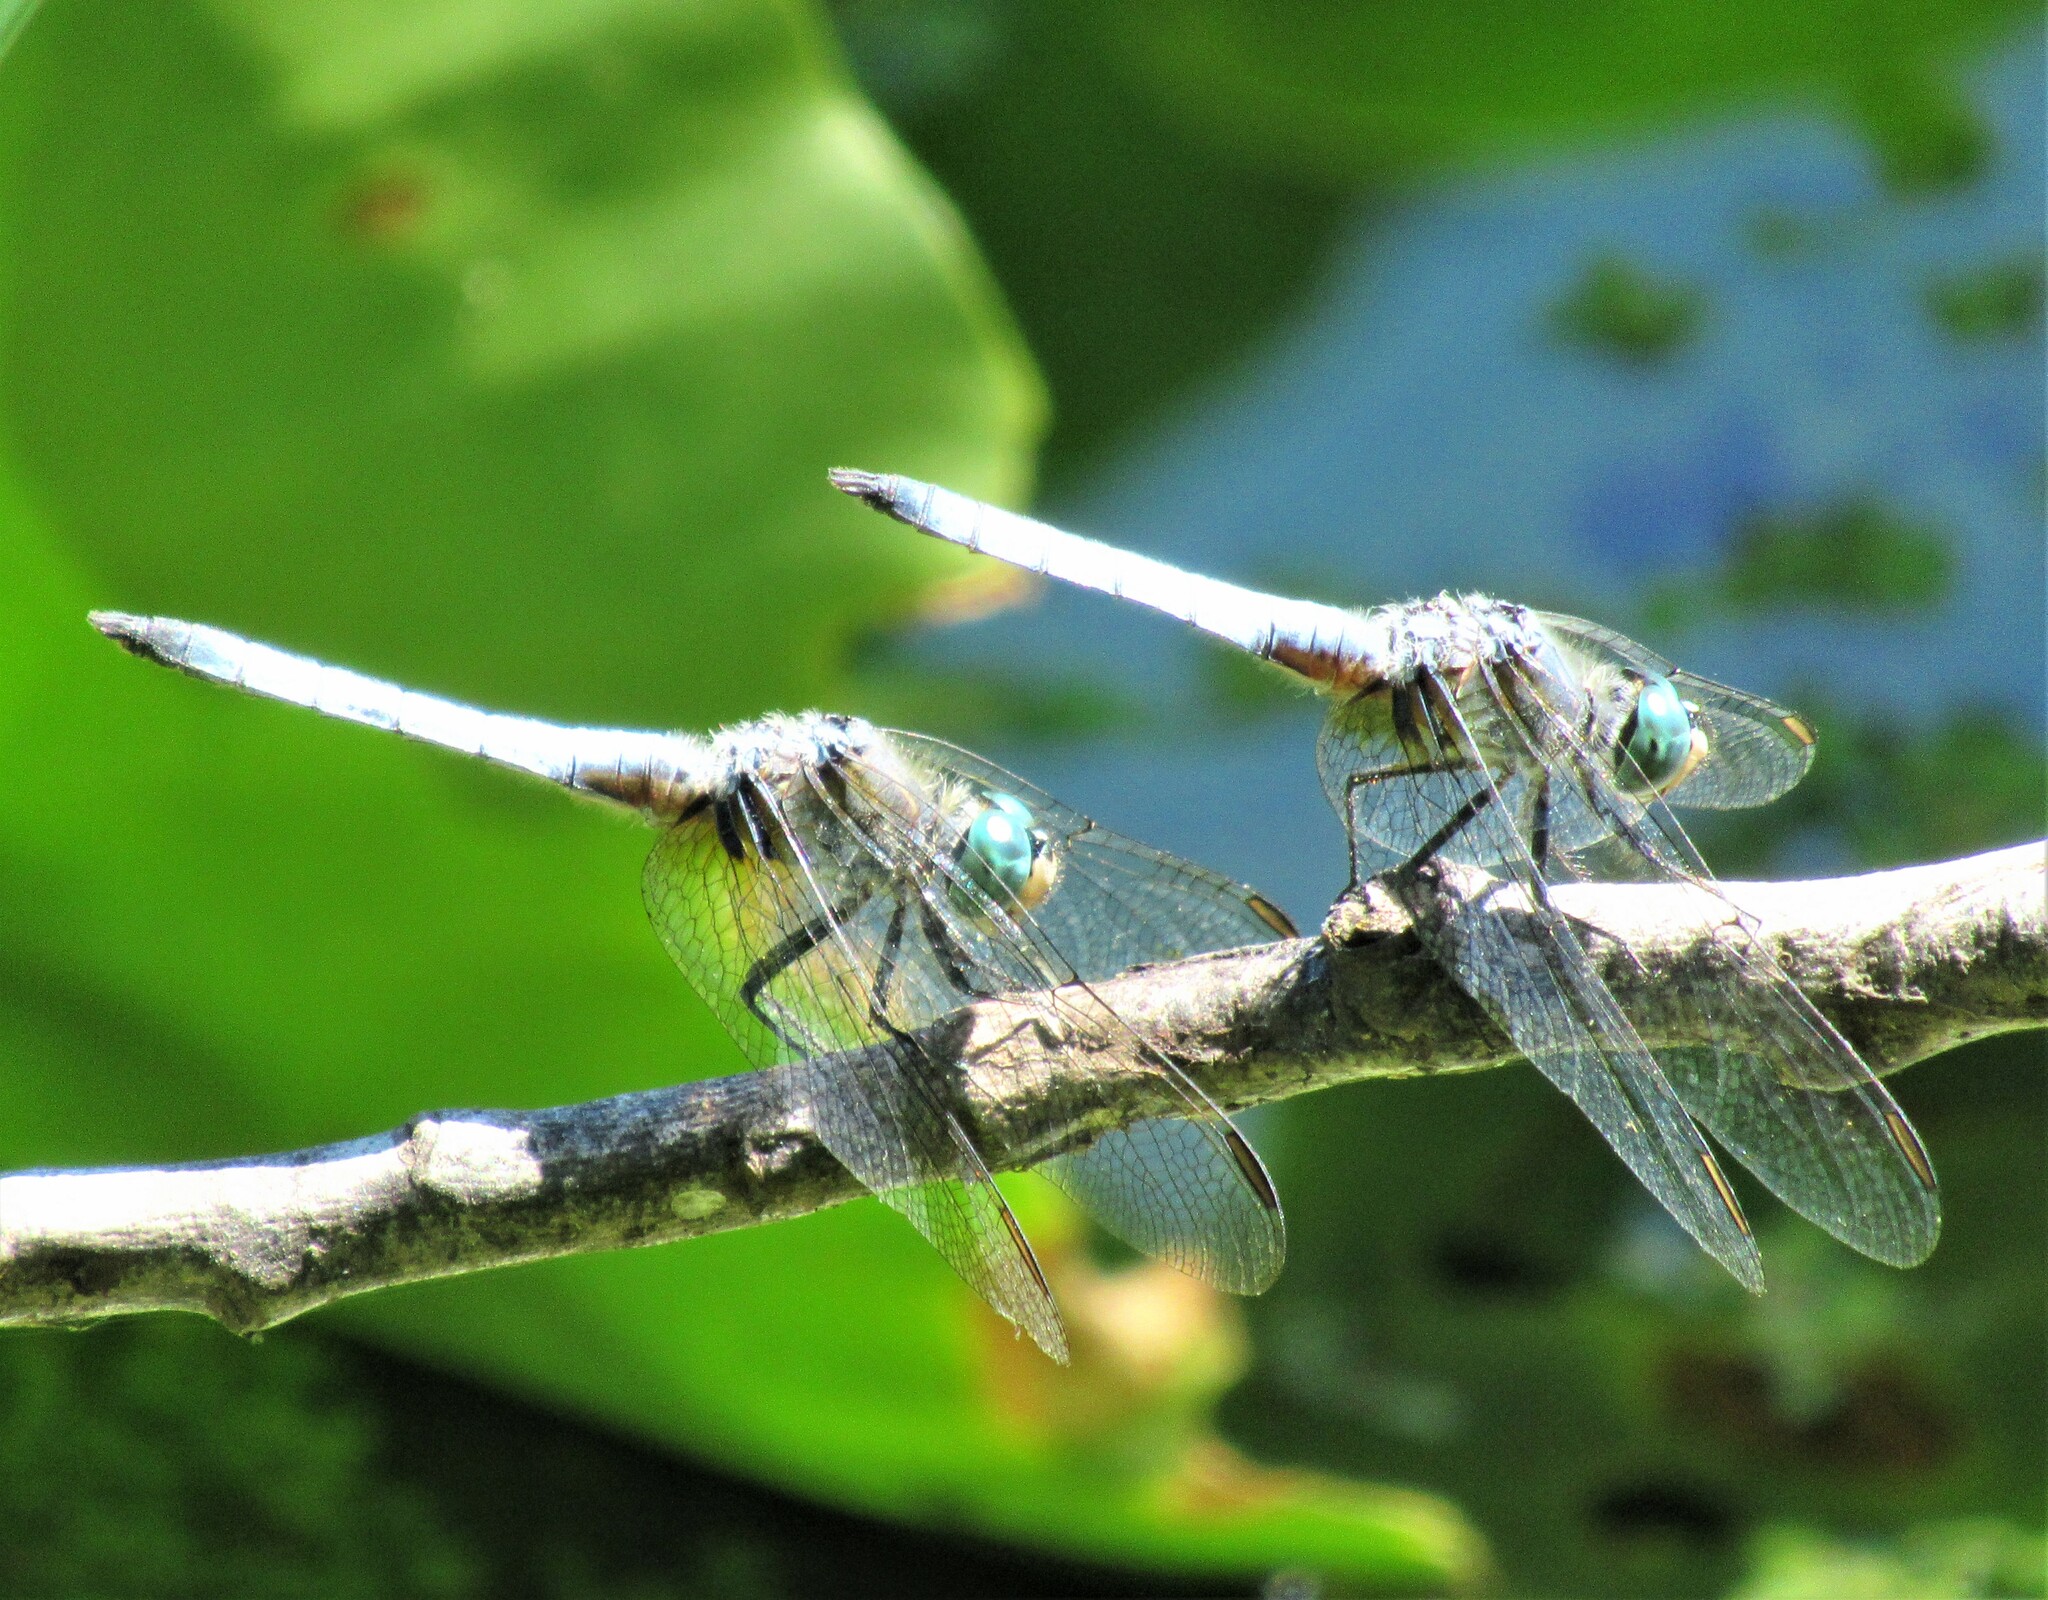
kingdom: Animalia
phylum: Arthropoda
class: Insecta
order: Odonata
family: Libellulidae
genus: Pachydiplax
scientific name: Pachydiplax longipennis
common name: Blue dasher
